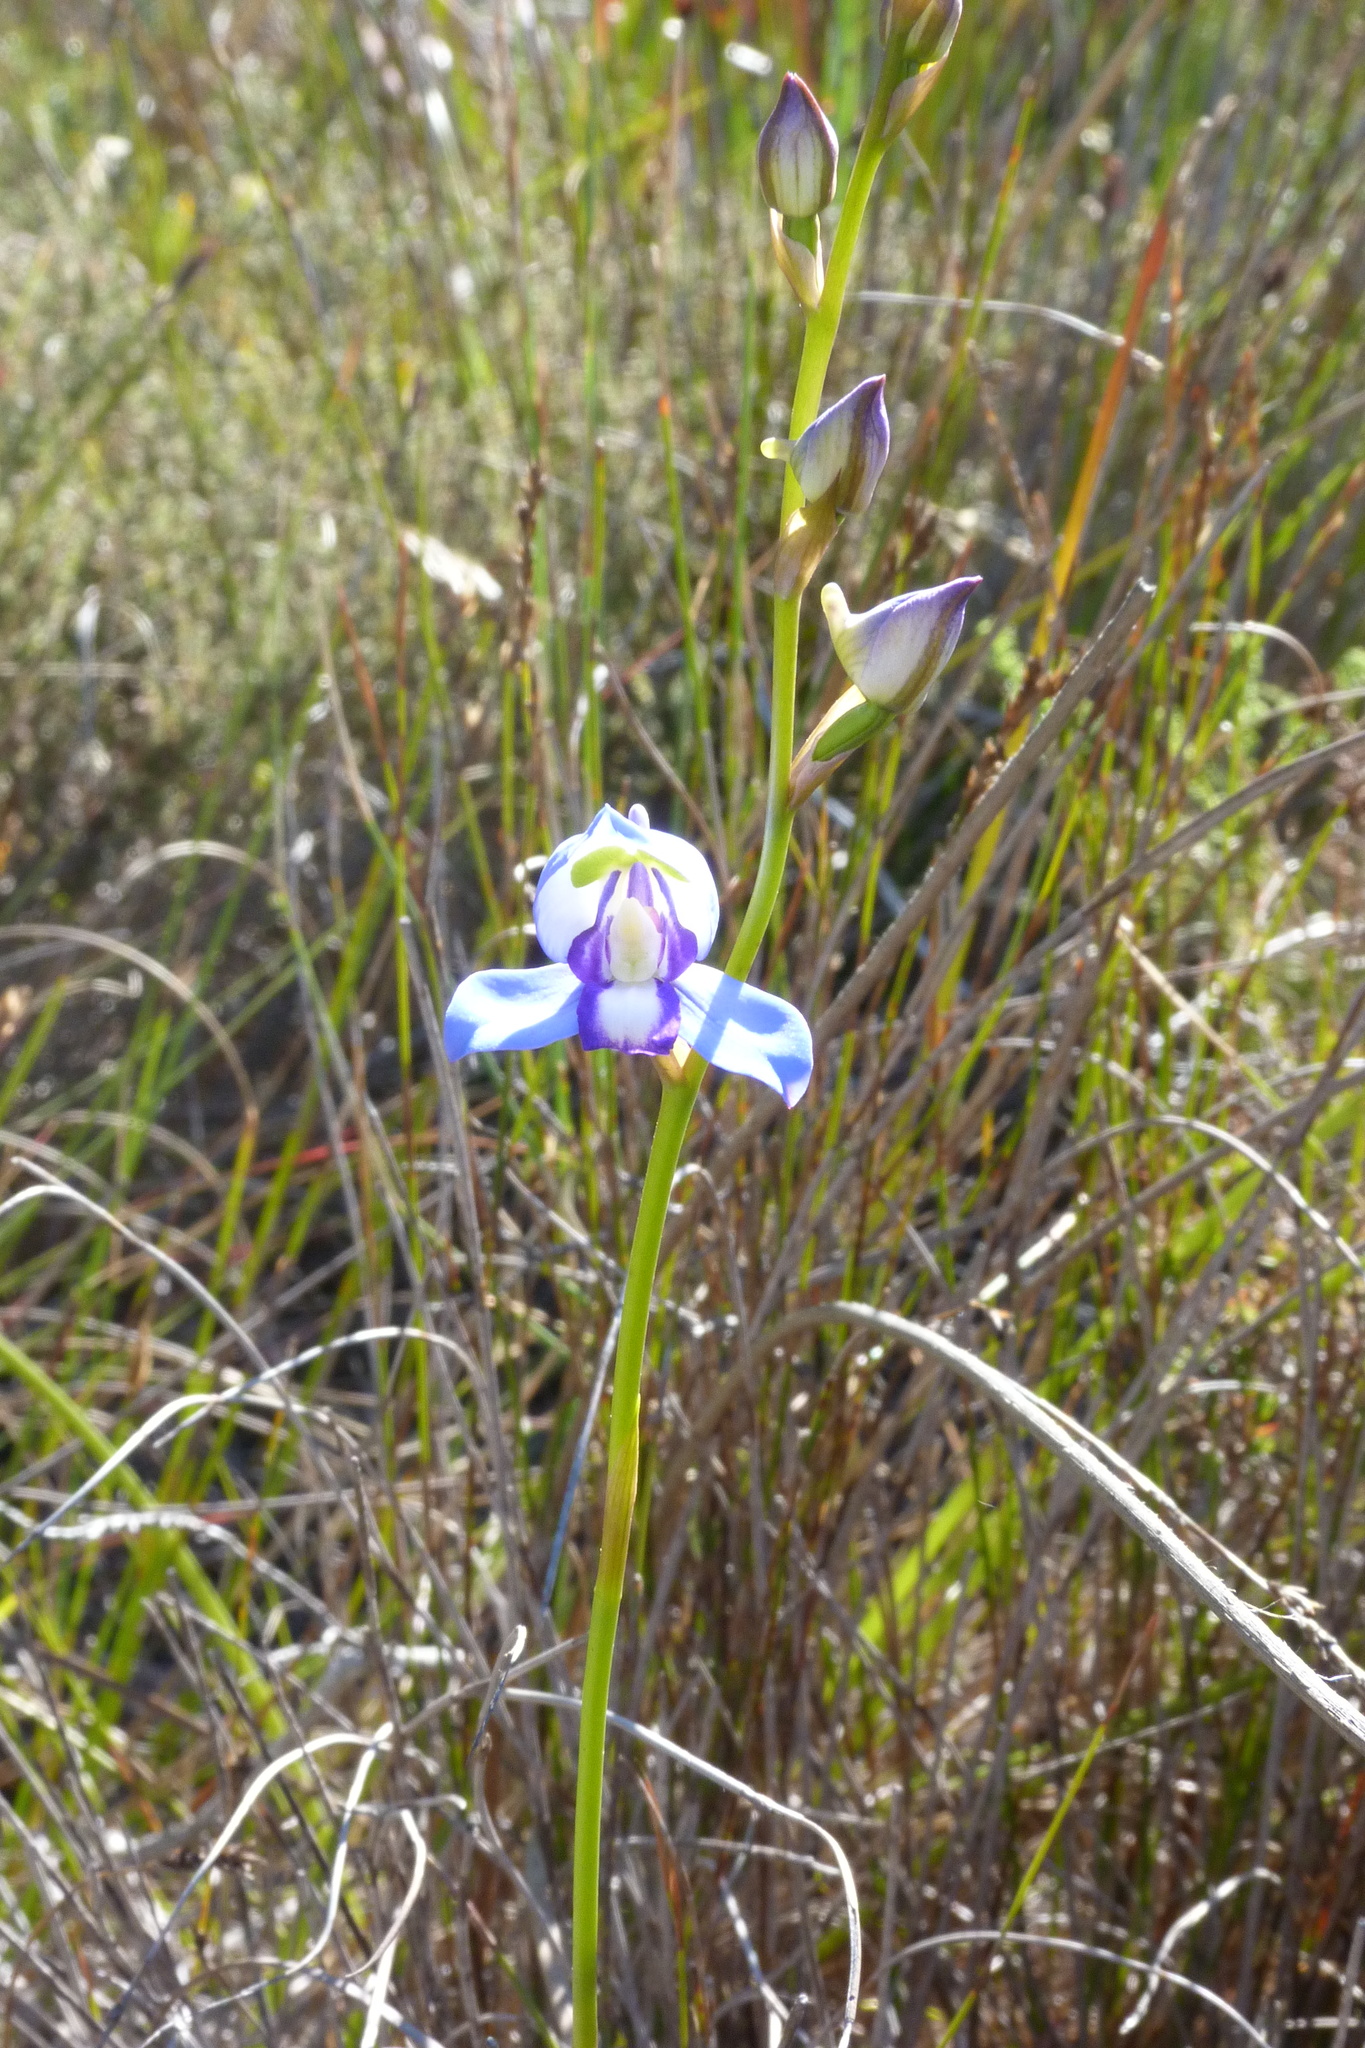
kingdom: Plantae
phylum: Tracheophyta
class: Liliopsida
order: Asparagales
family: Orchidaceae
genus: Disa
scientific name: Disa graminifolia
